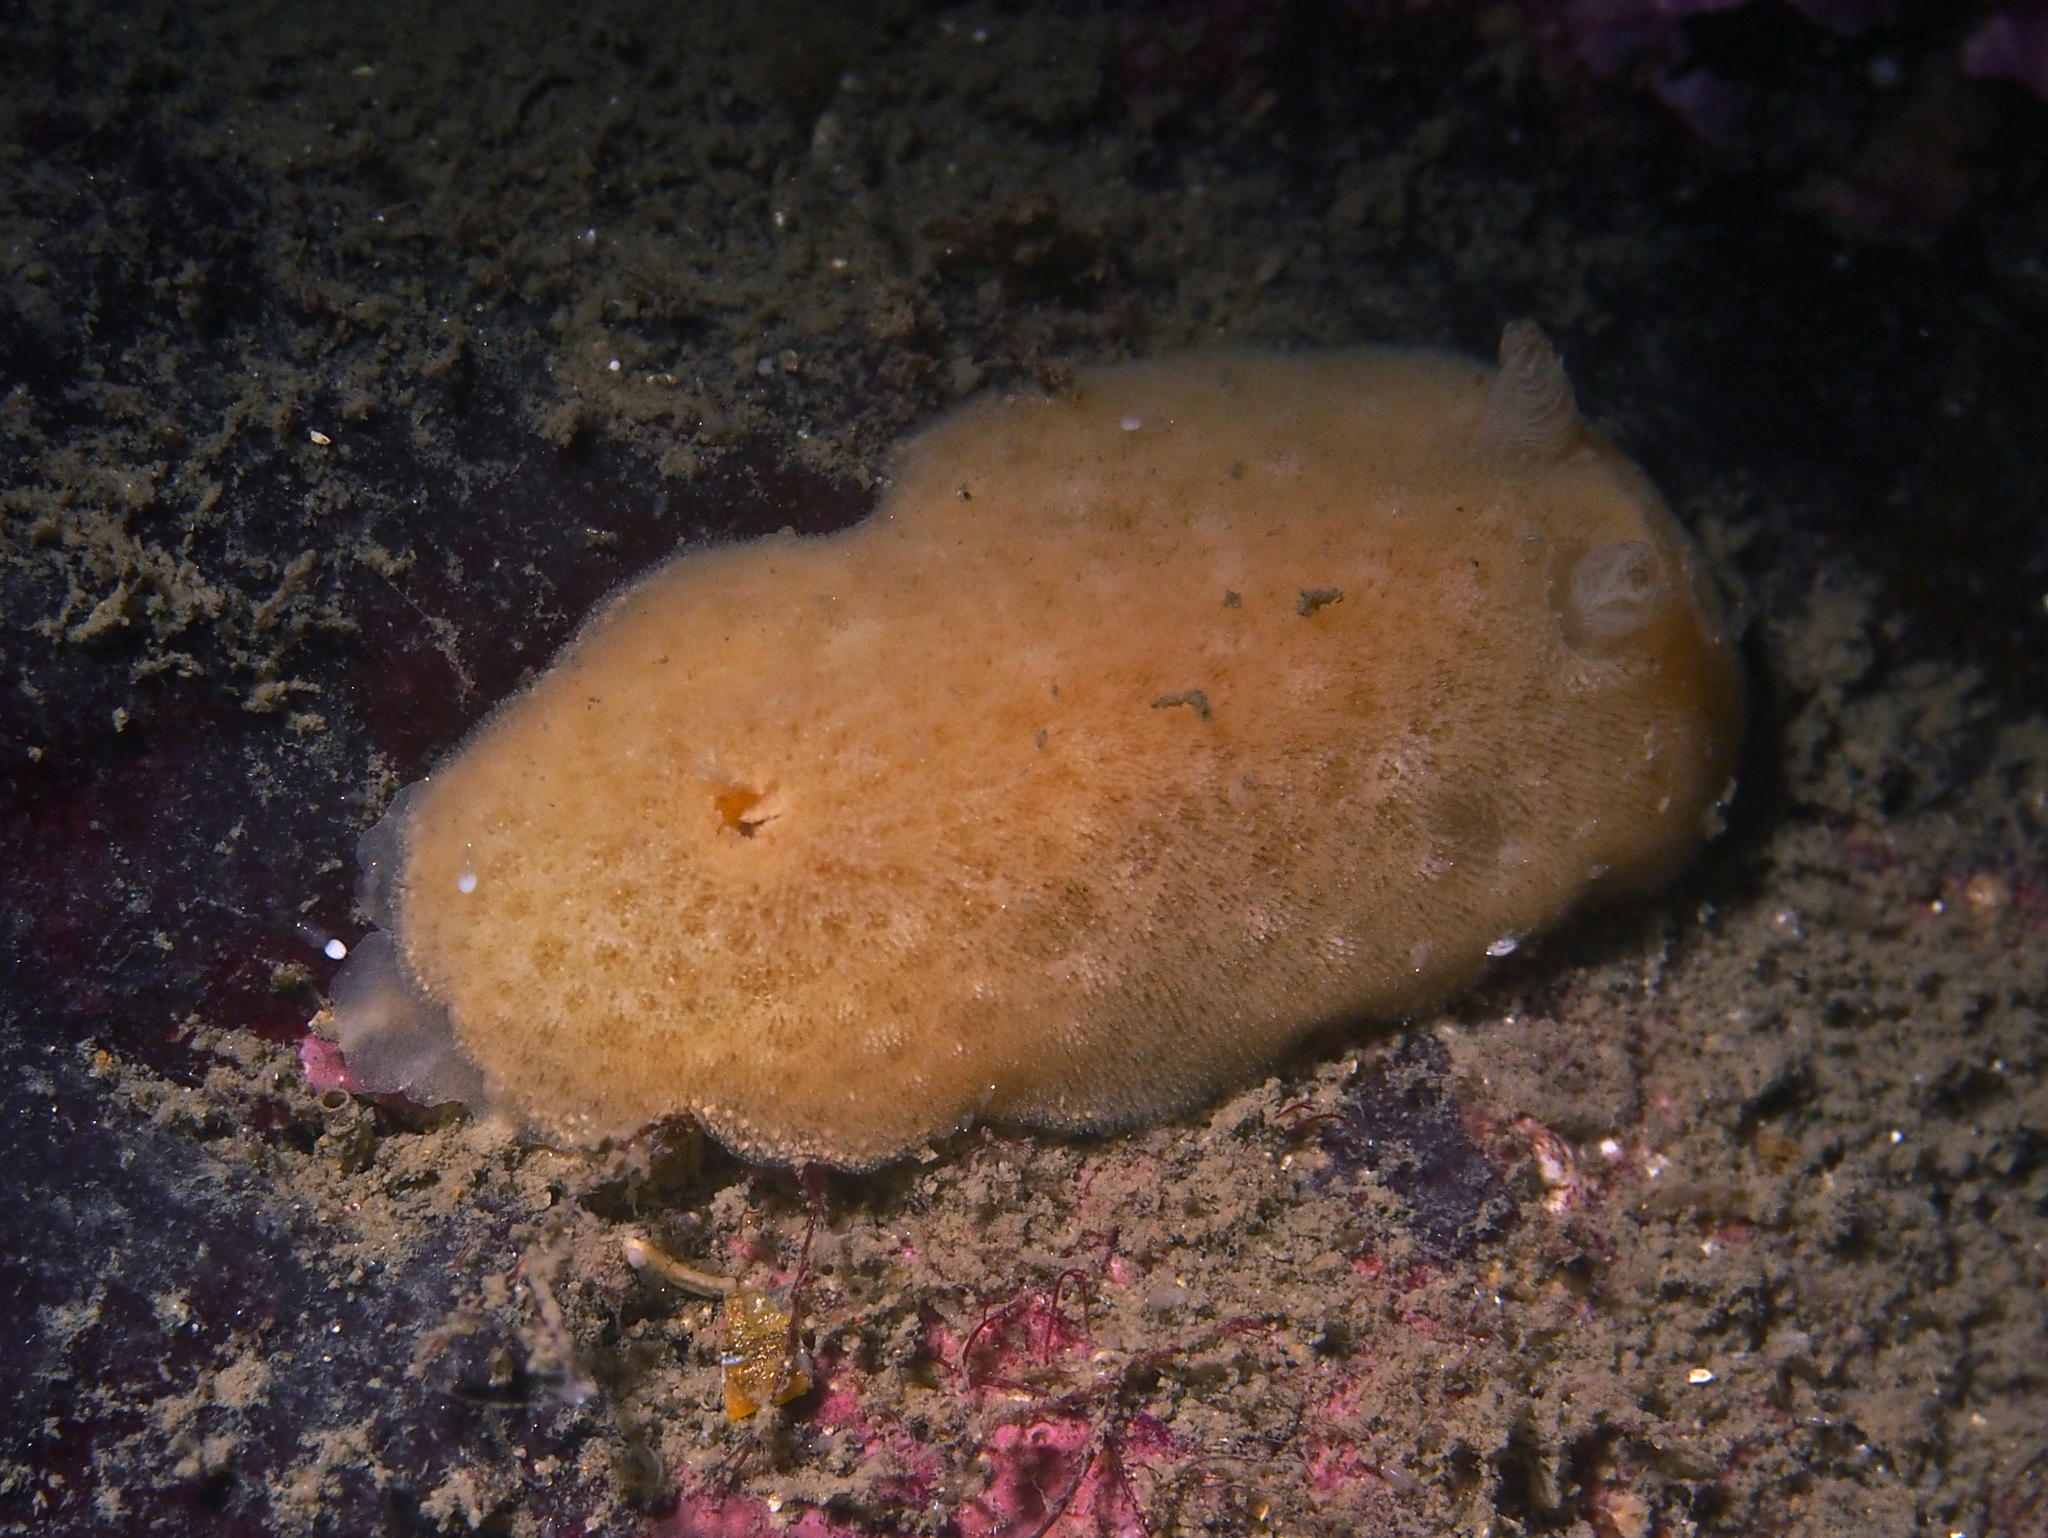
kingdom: Animalia
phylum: Mollusca
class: Gastropoda
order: Nudibranchia
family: Discodorididae
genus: Jorunna
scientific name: Jorunna tomentosa
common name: Grey sea slug
